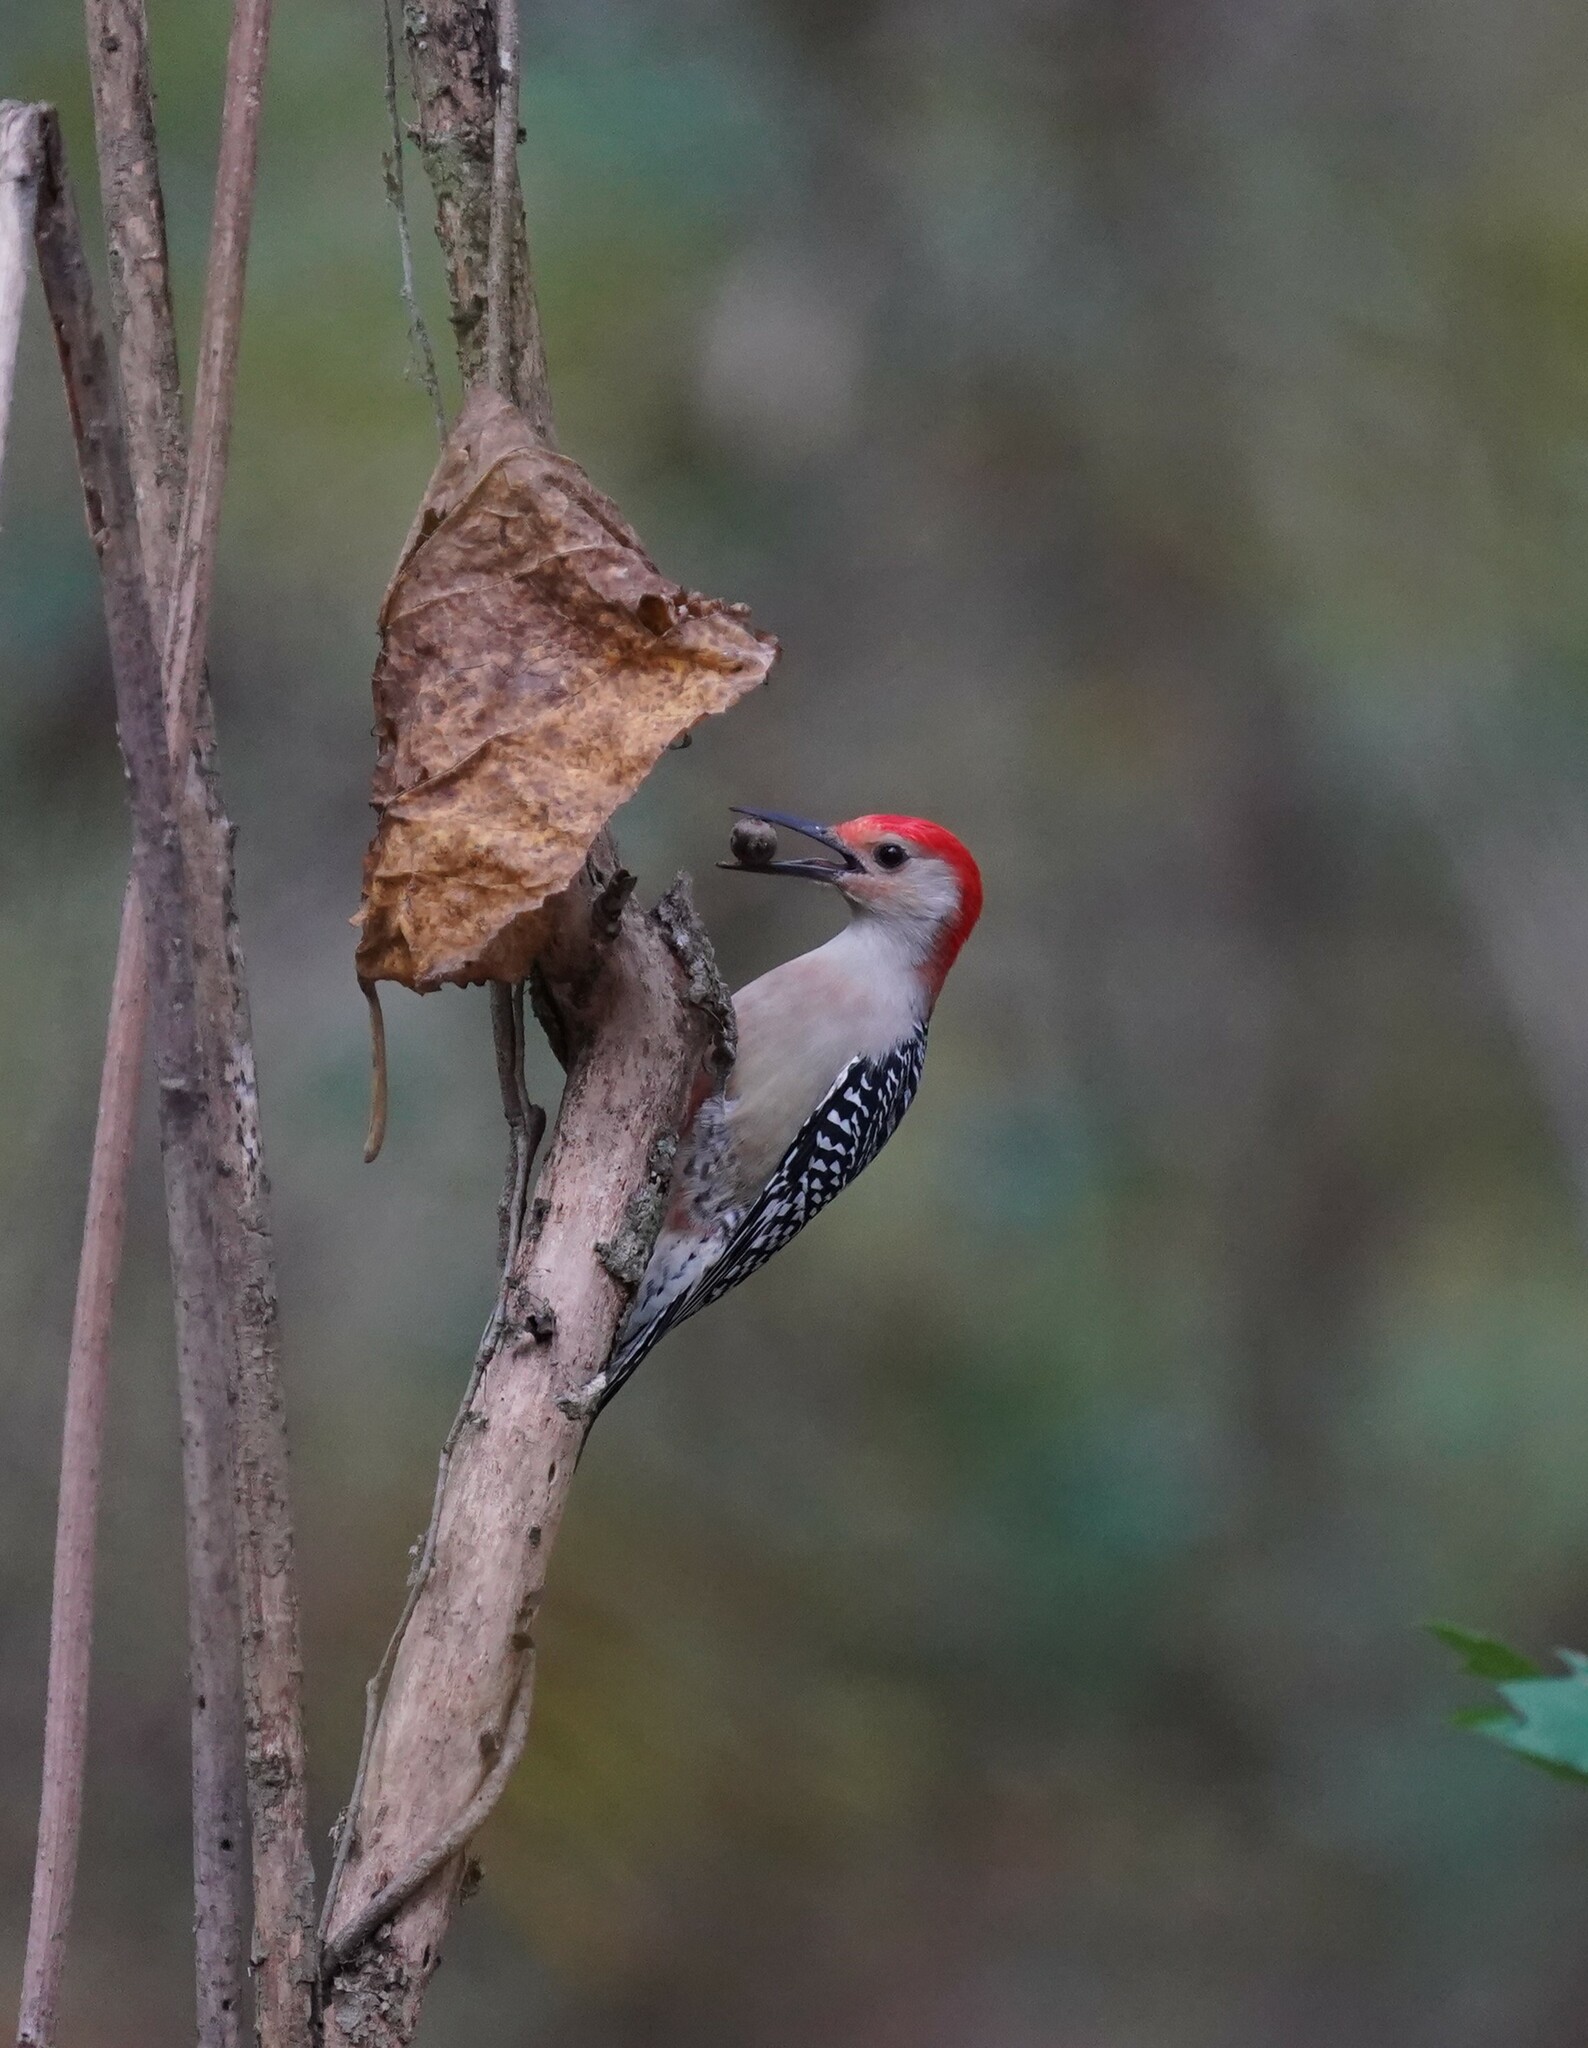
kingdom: Animalia
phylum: Chordata
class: Aves
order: Piciformes
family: Picidae
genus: Melanerpes
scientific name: Melanerpes carolinus
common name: Red-bellied woodpecker
